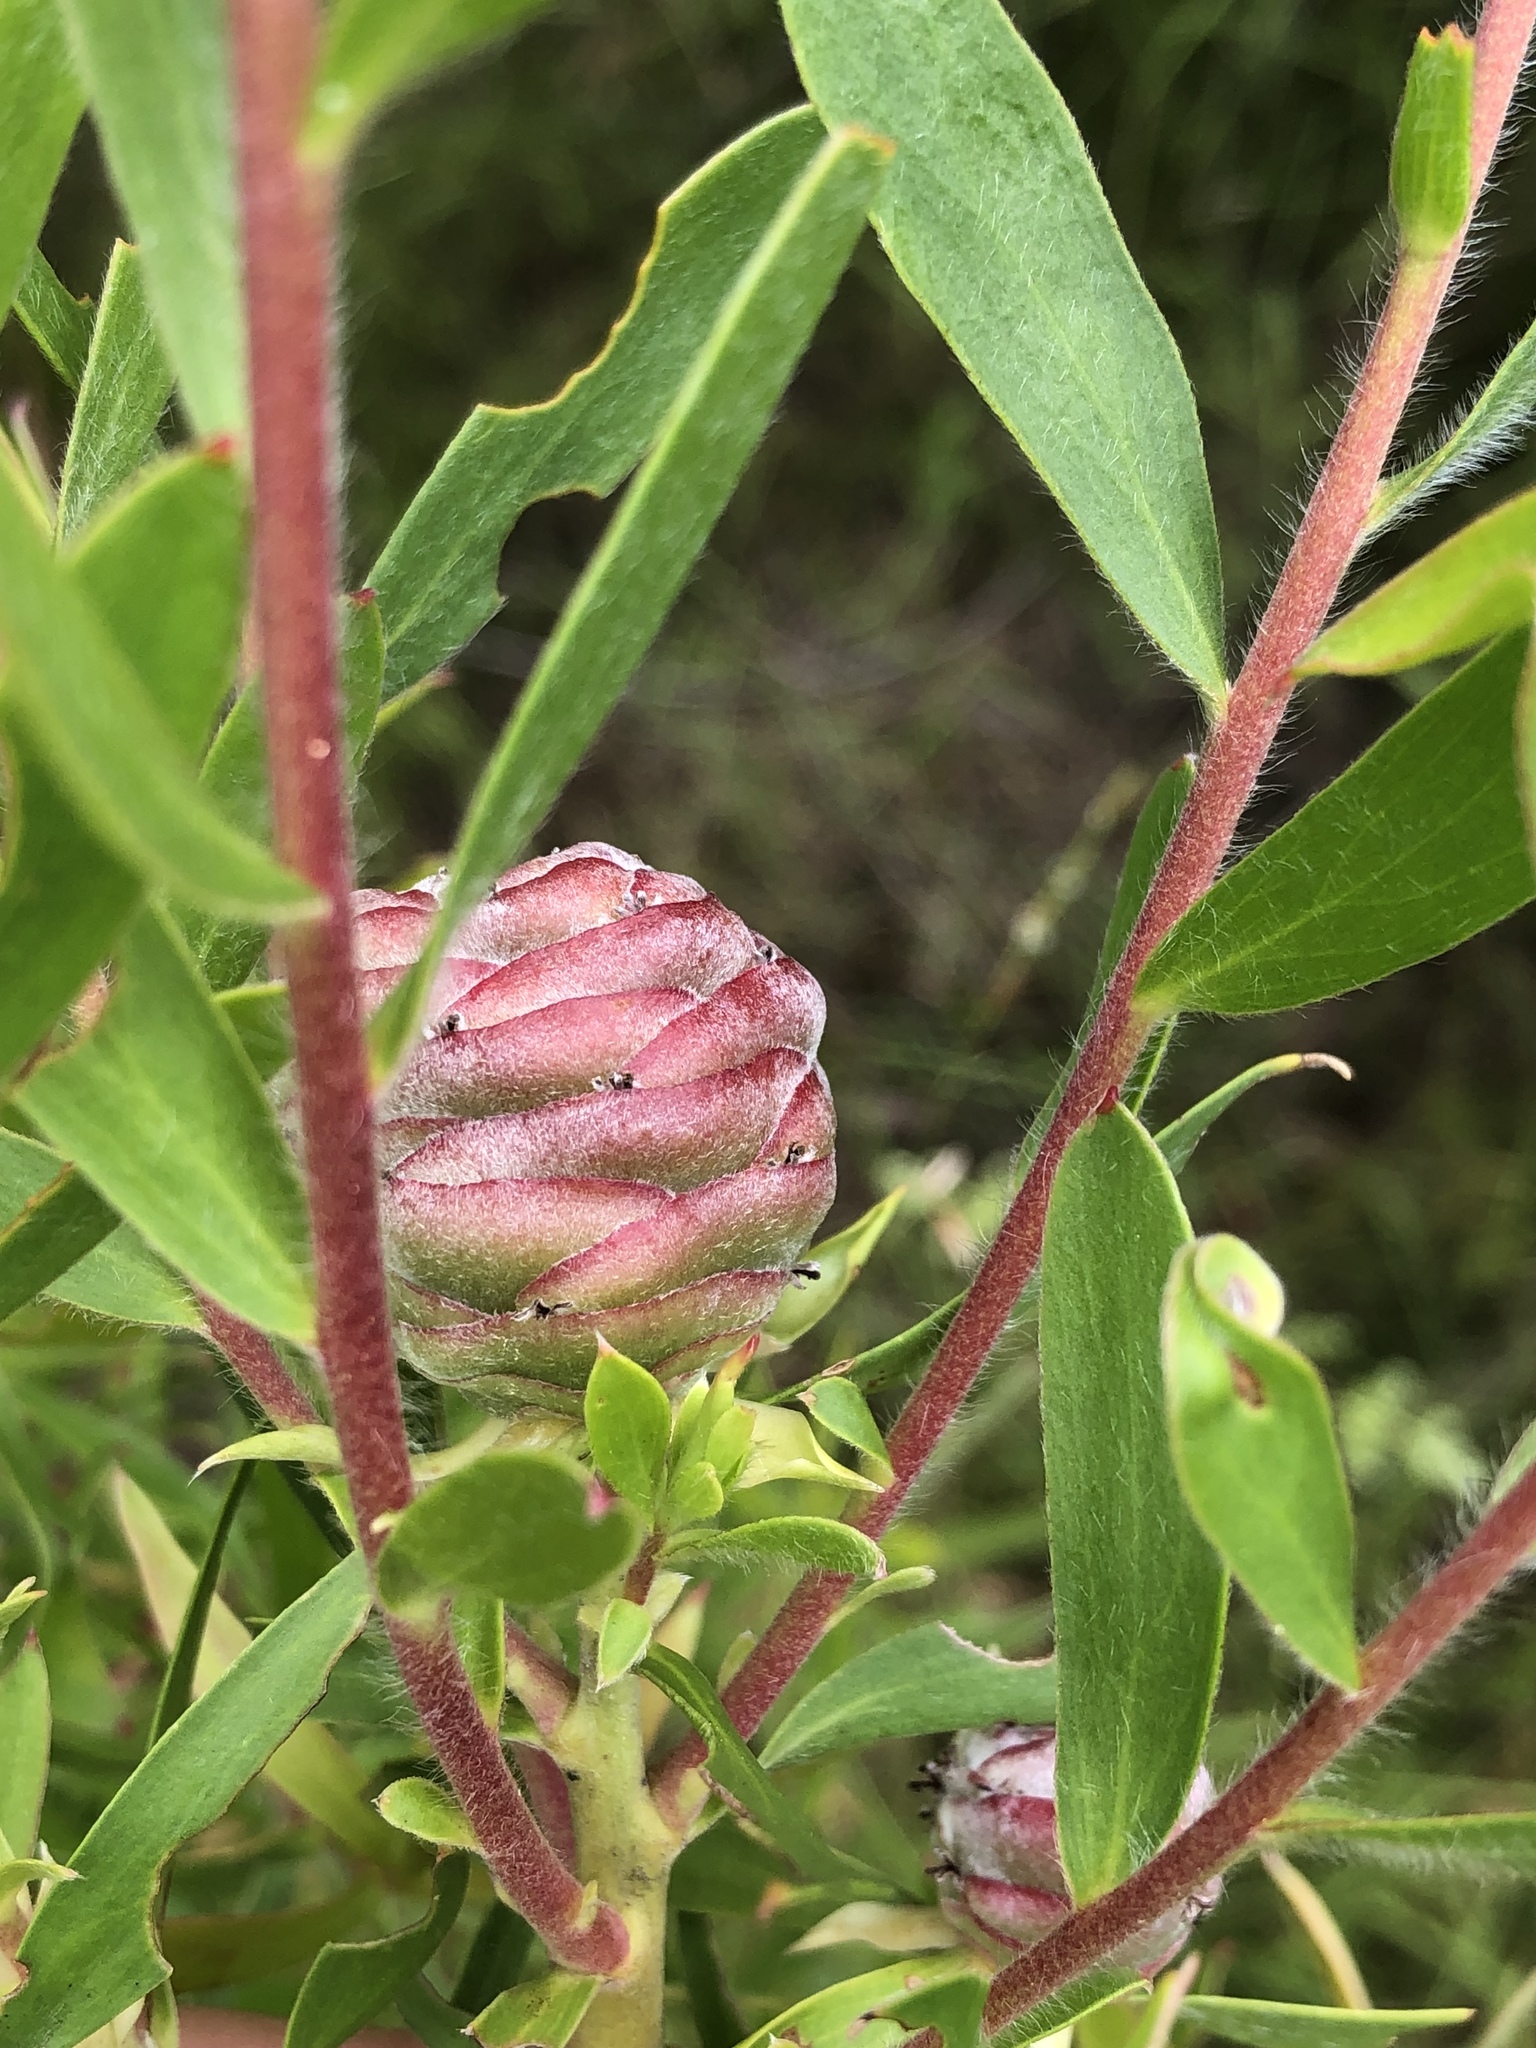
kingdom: Plantae
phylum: Tracheophyta
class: Magnoliopsida
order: Proteales
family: Proteaceae
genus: Leucadendron
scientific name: Leucadendron uliginosum
